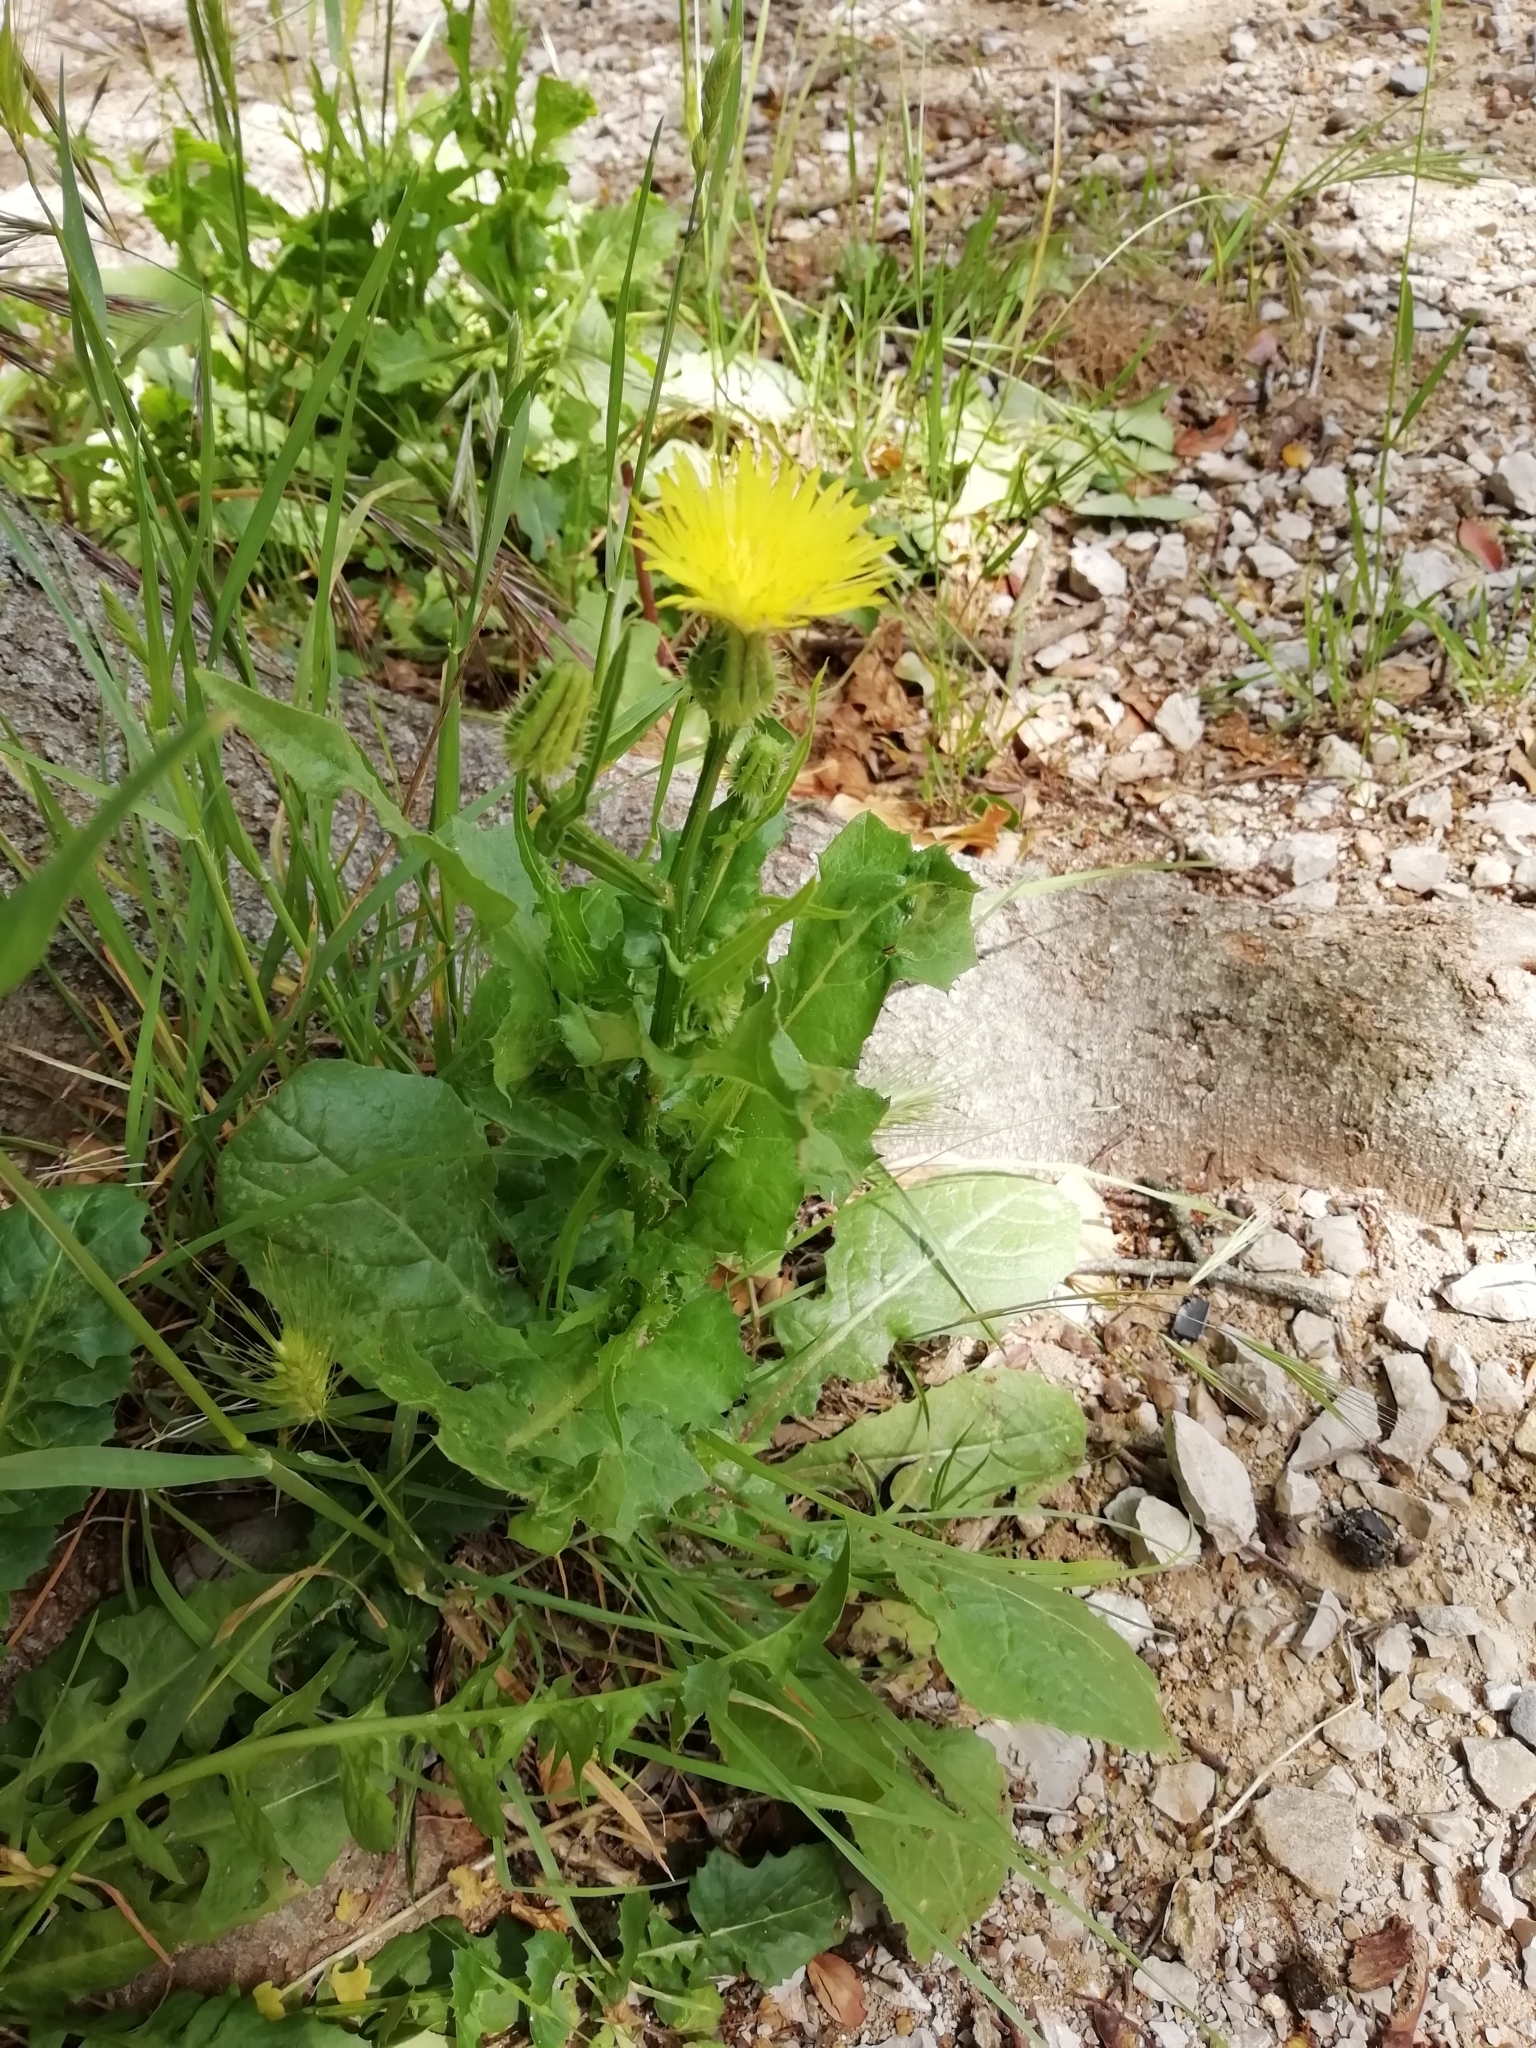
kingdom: Plantae
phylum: Tracheophyta
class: Magnoliopsida
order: Asterales
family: Asteraceae
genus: Urospermum
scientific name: Urospermum picroides
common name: False hawkbit
